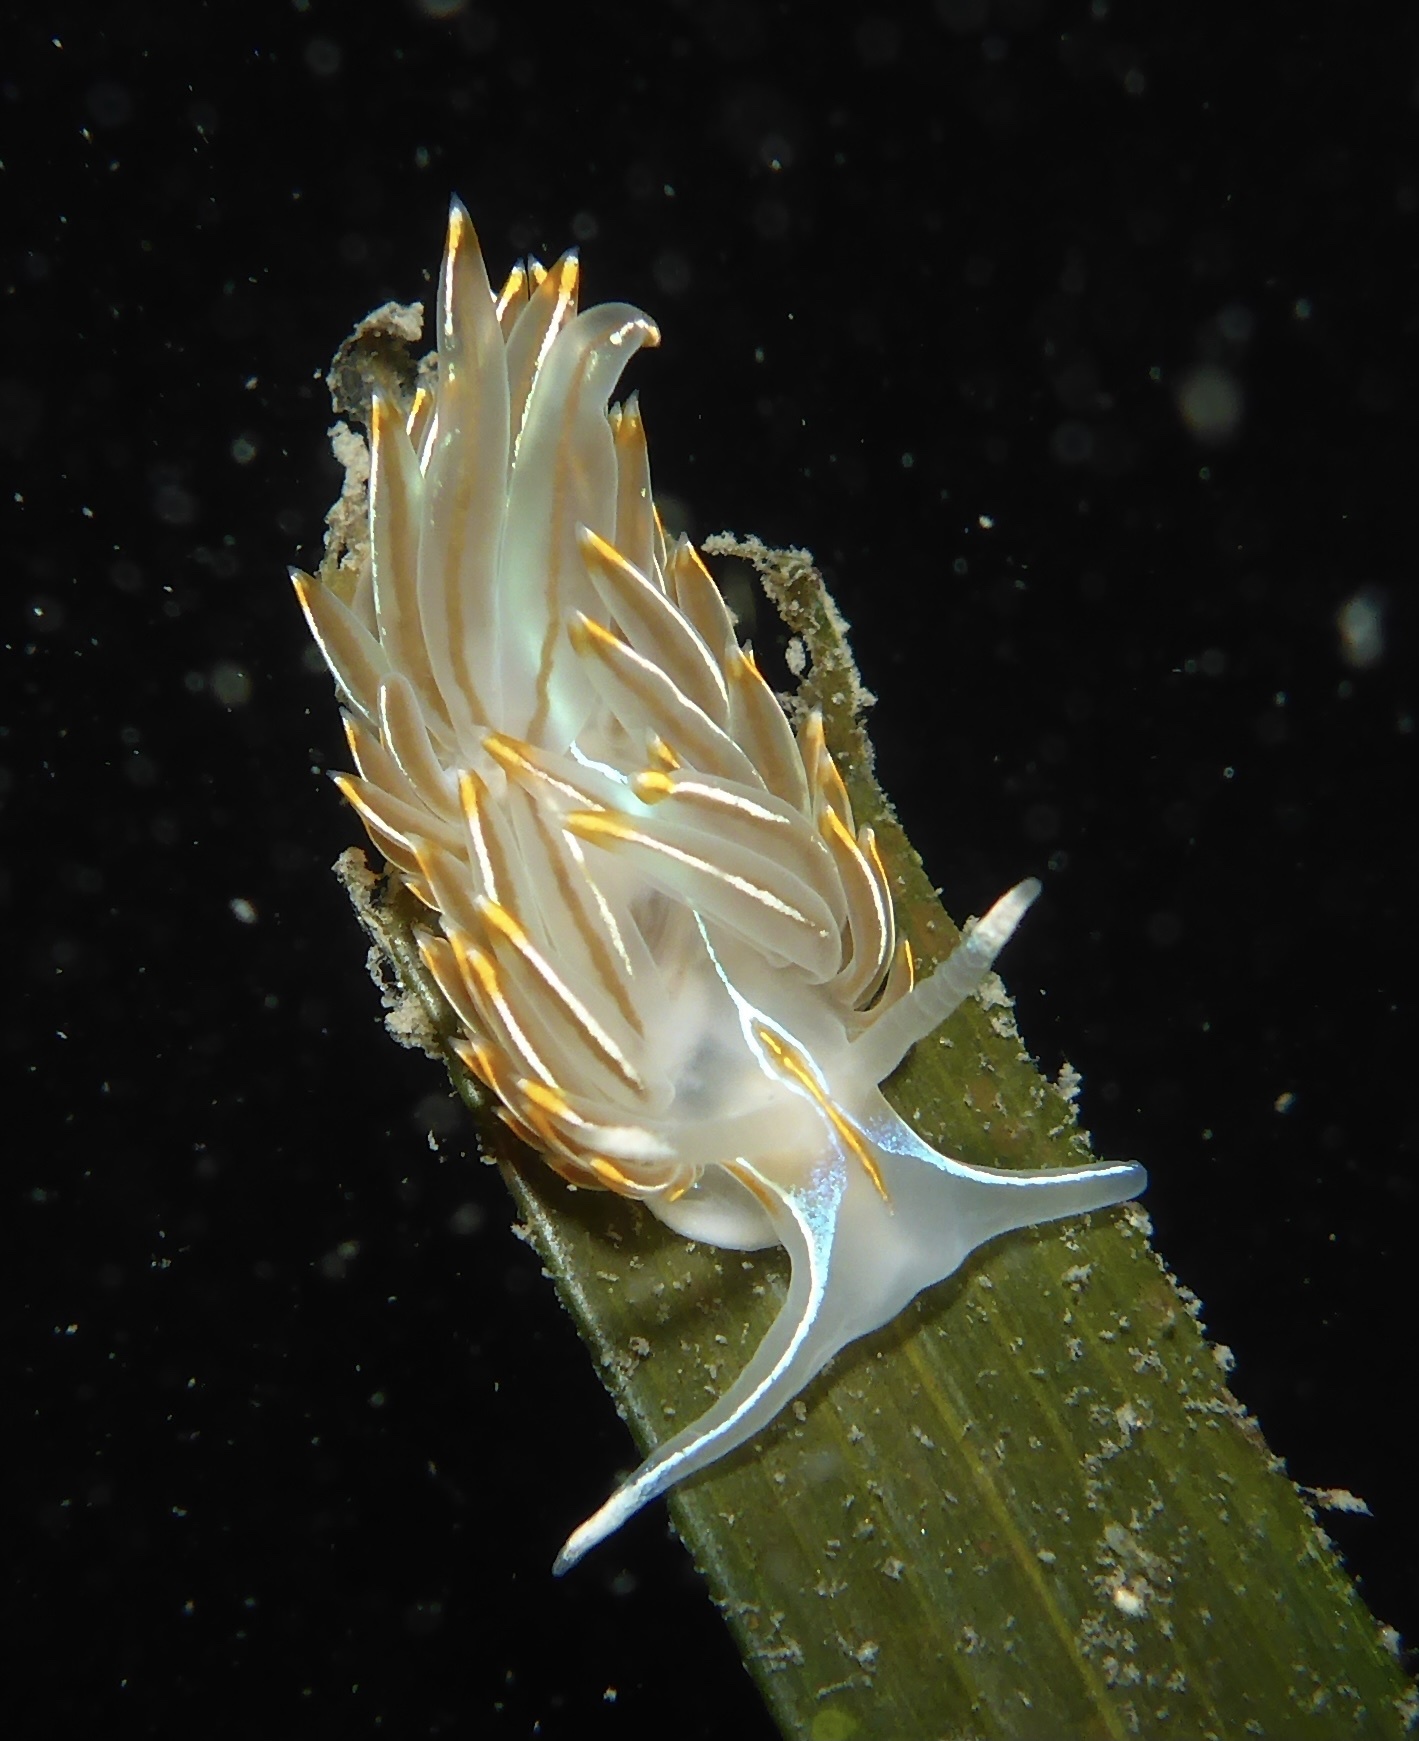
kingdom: Animalia
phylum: Mollusca
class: Gastropoda
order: Nudibranchia
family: Myrrhinidae
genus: Hermissenda
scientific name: Hermissenda crassicornis
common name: Hermissenda
